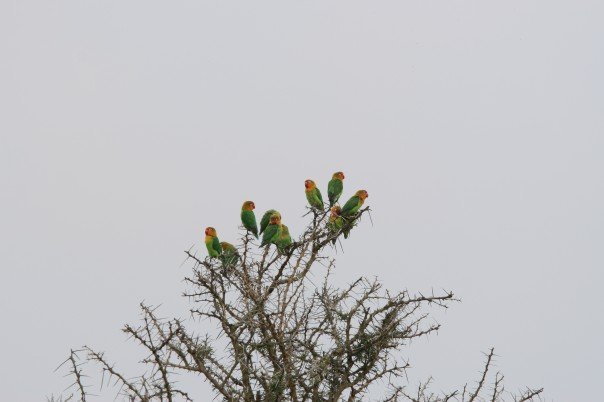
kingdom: Animalia
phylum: Chordata
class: Aves
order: Psittaciformes
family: Psittacidae
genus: Agapornis
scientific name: Agapornis fischeri
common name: Fischer's lovebird
